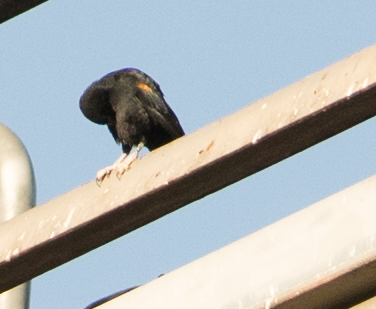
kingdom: Animalia
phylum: Chordata
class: Aves
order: Passeriformes
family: Icteridae
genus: Agelaius
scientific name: Agelaius phoeniceus
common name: Red-winged blackbird
